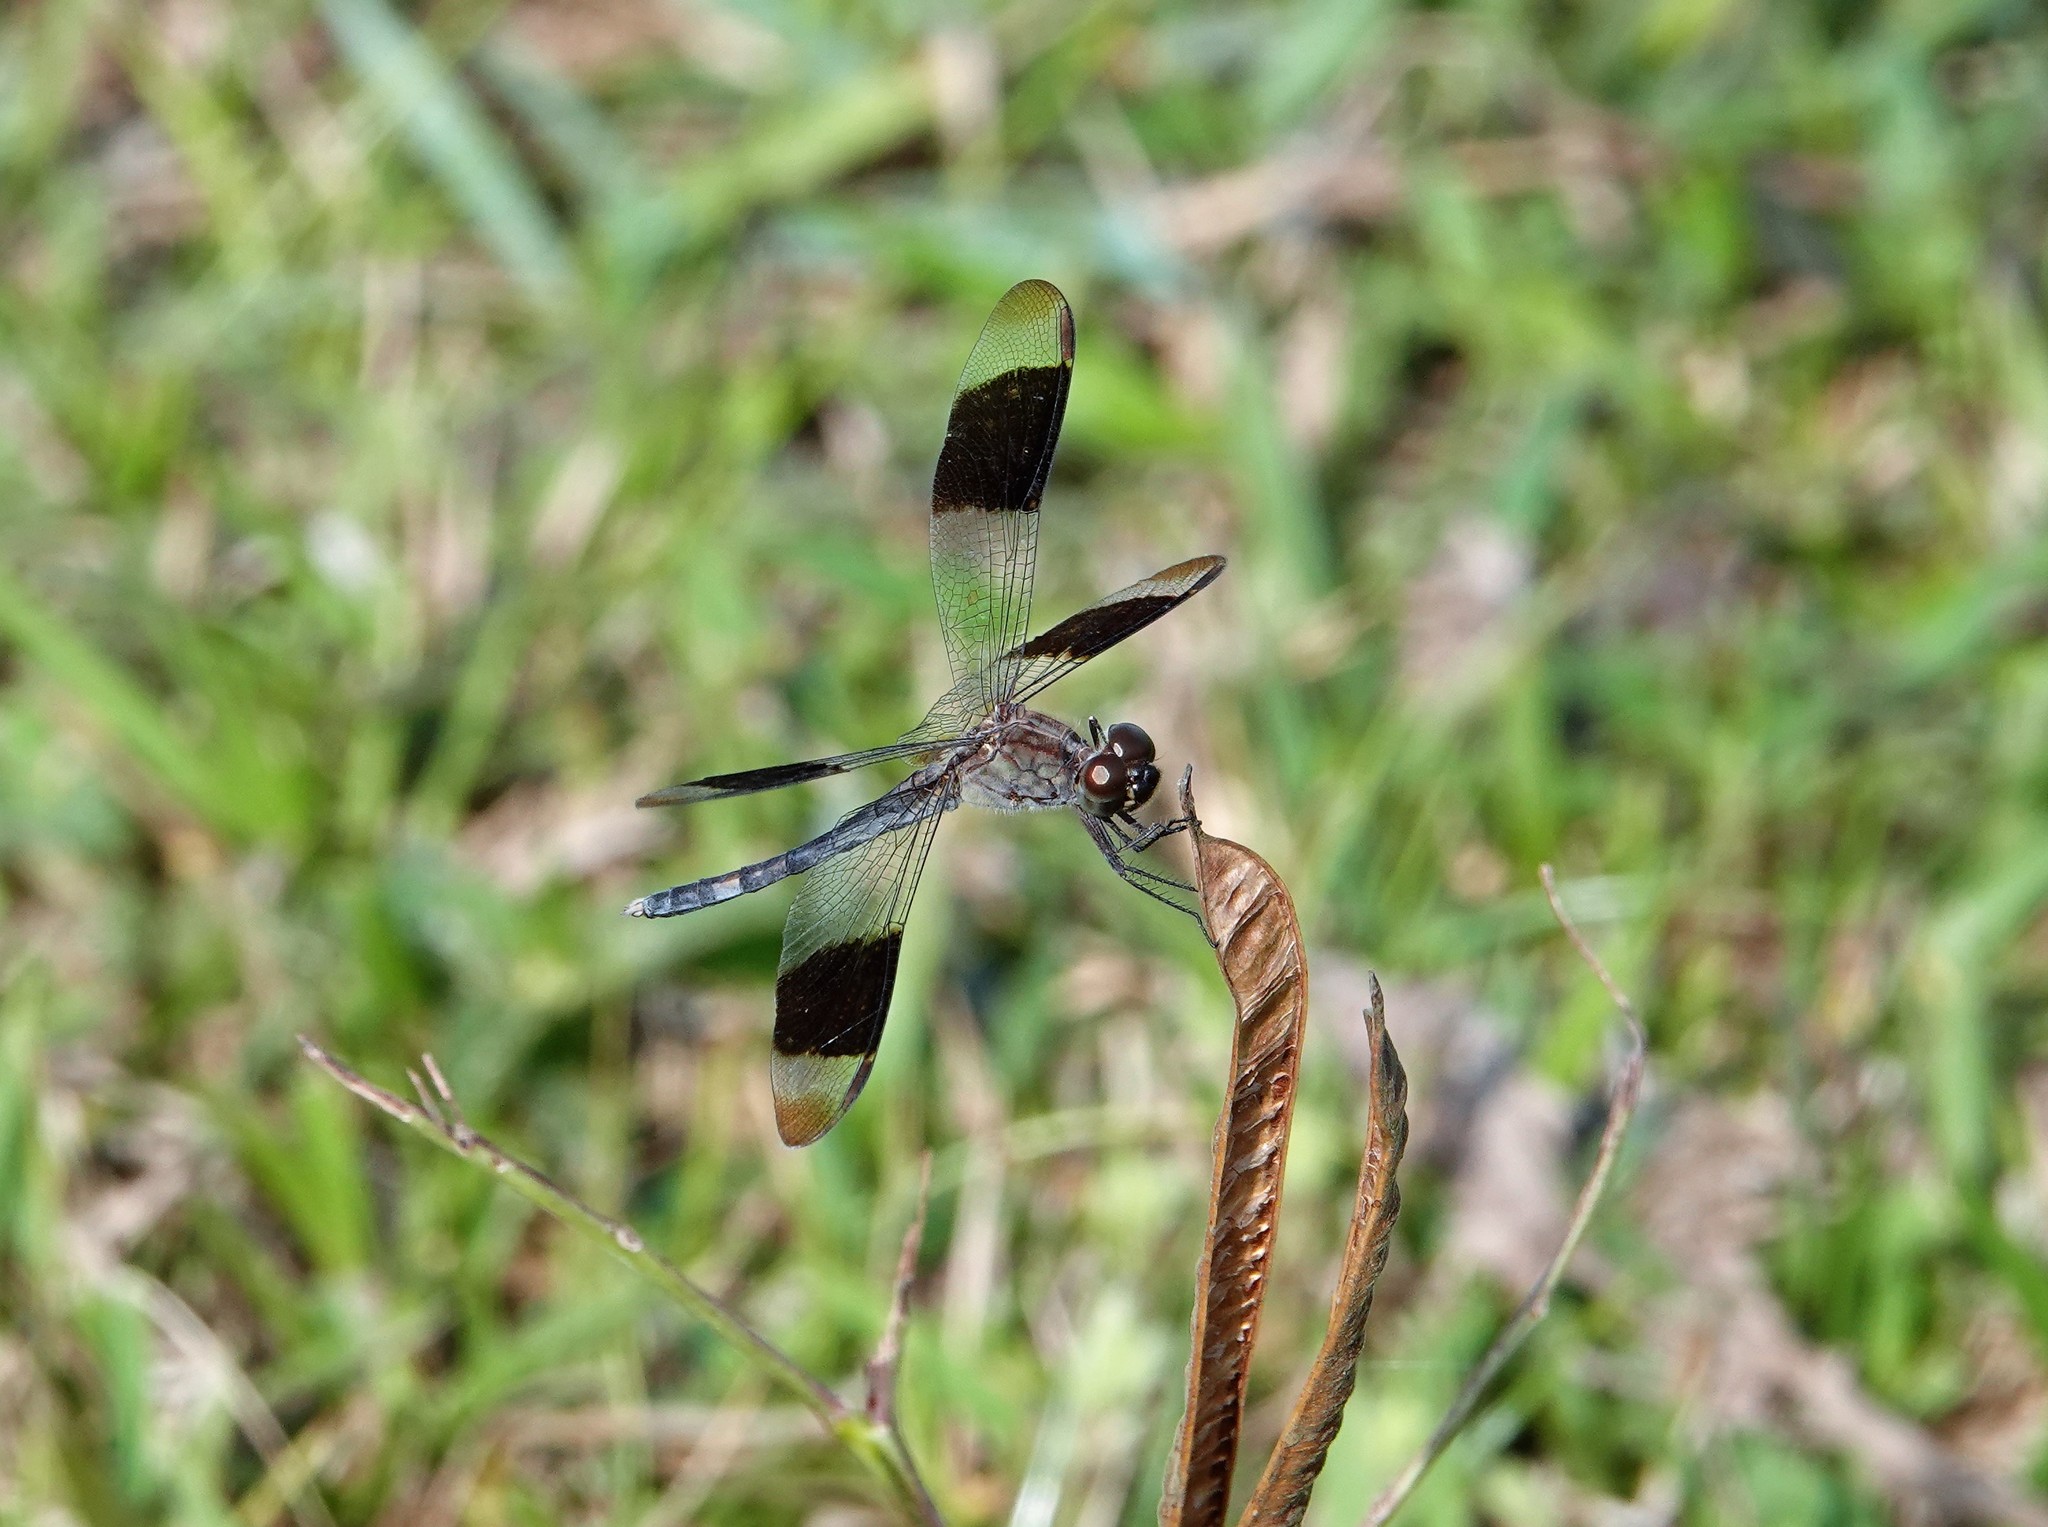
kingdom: Animalia
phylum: Arthropoda
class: Insecta
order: Odonata
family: Libellulidae
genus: Erythrodiplax
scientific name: Erythrodiplax umbrata
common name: Band-winged dragonlet
